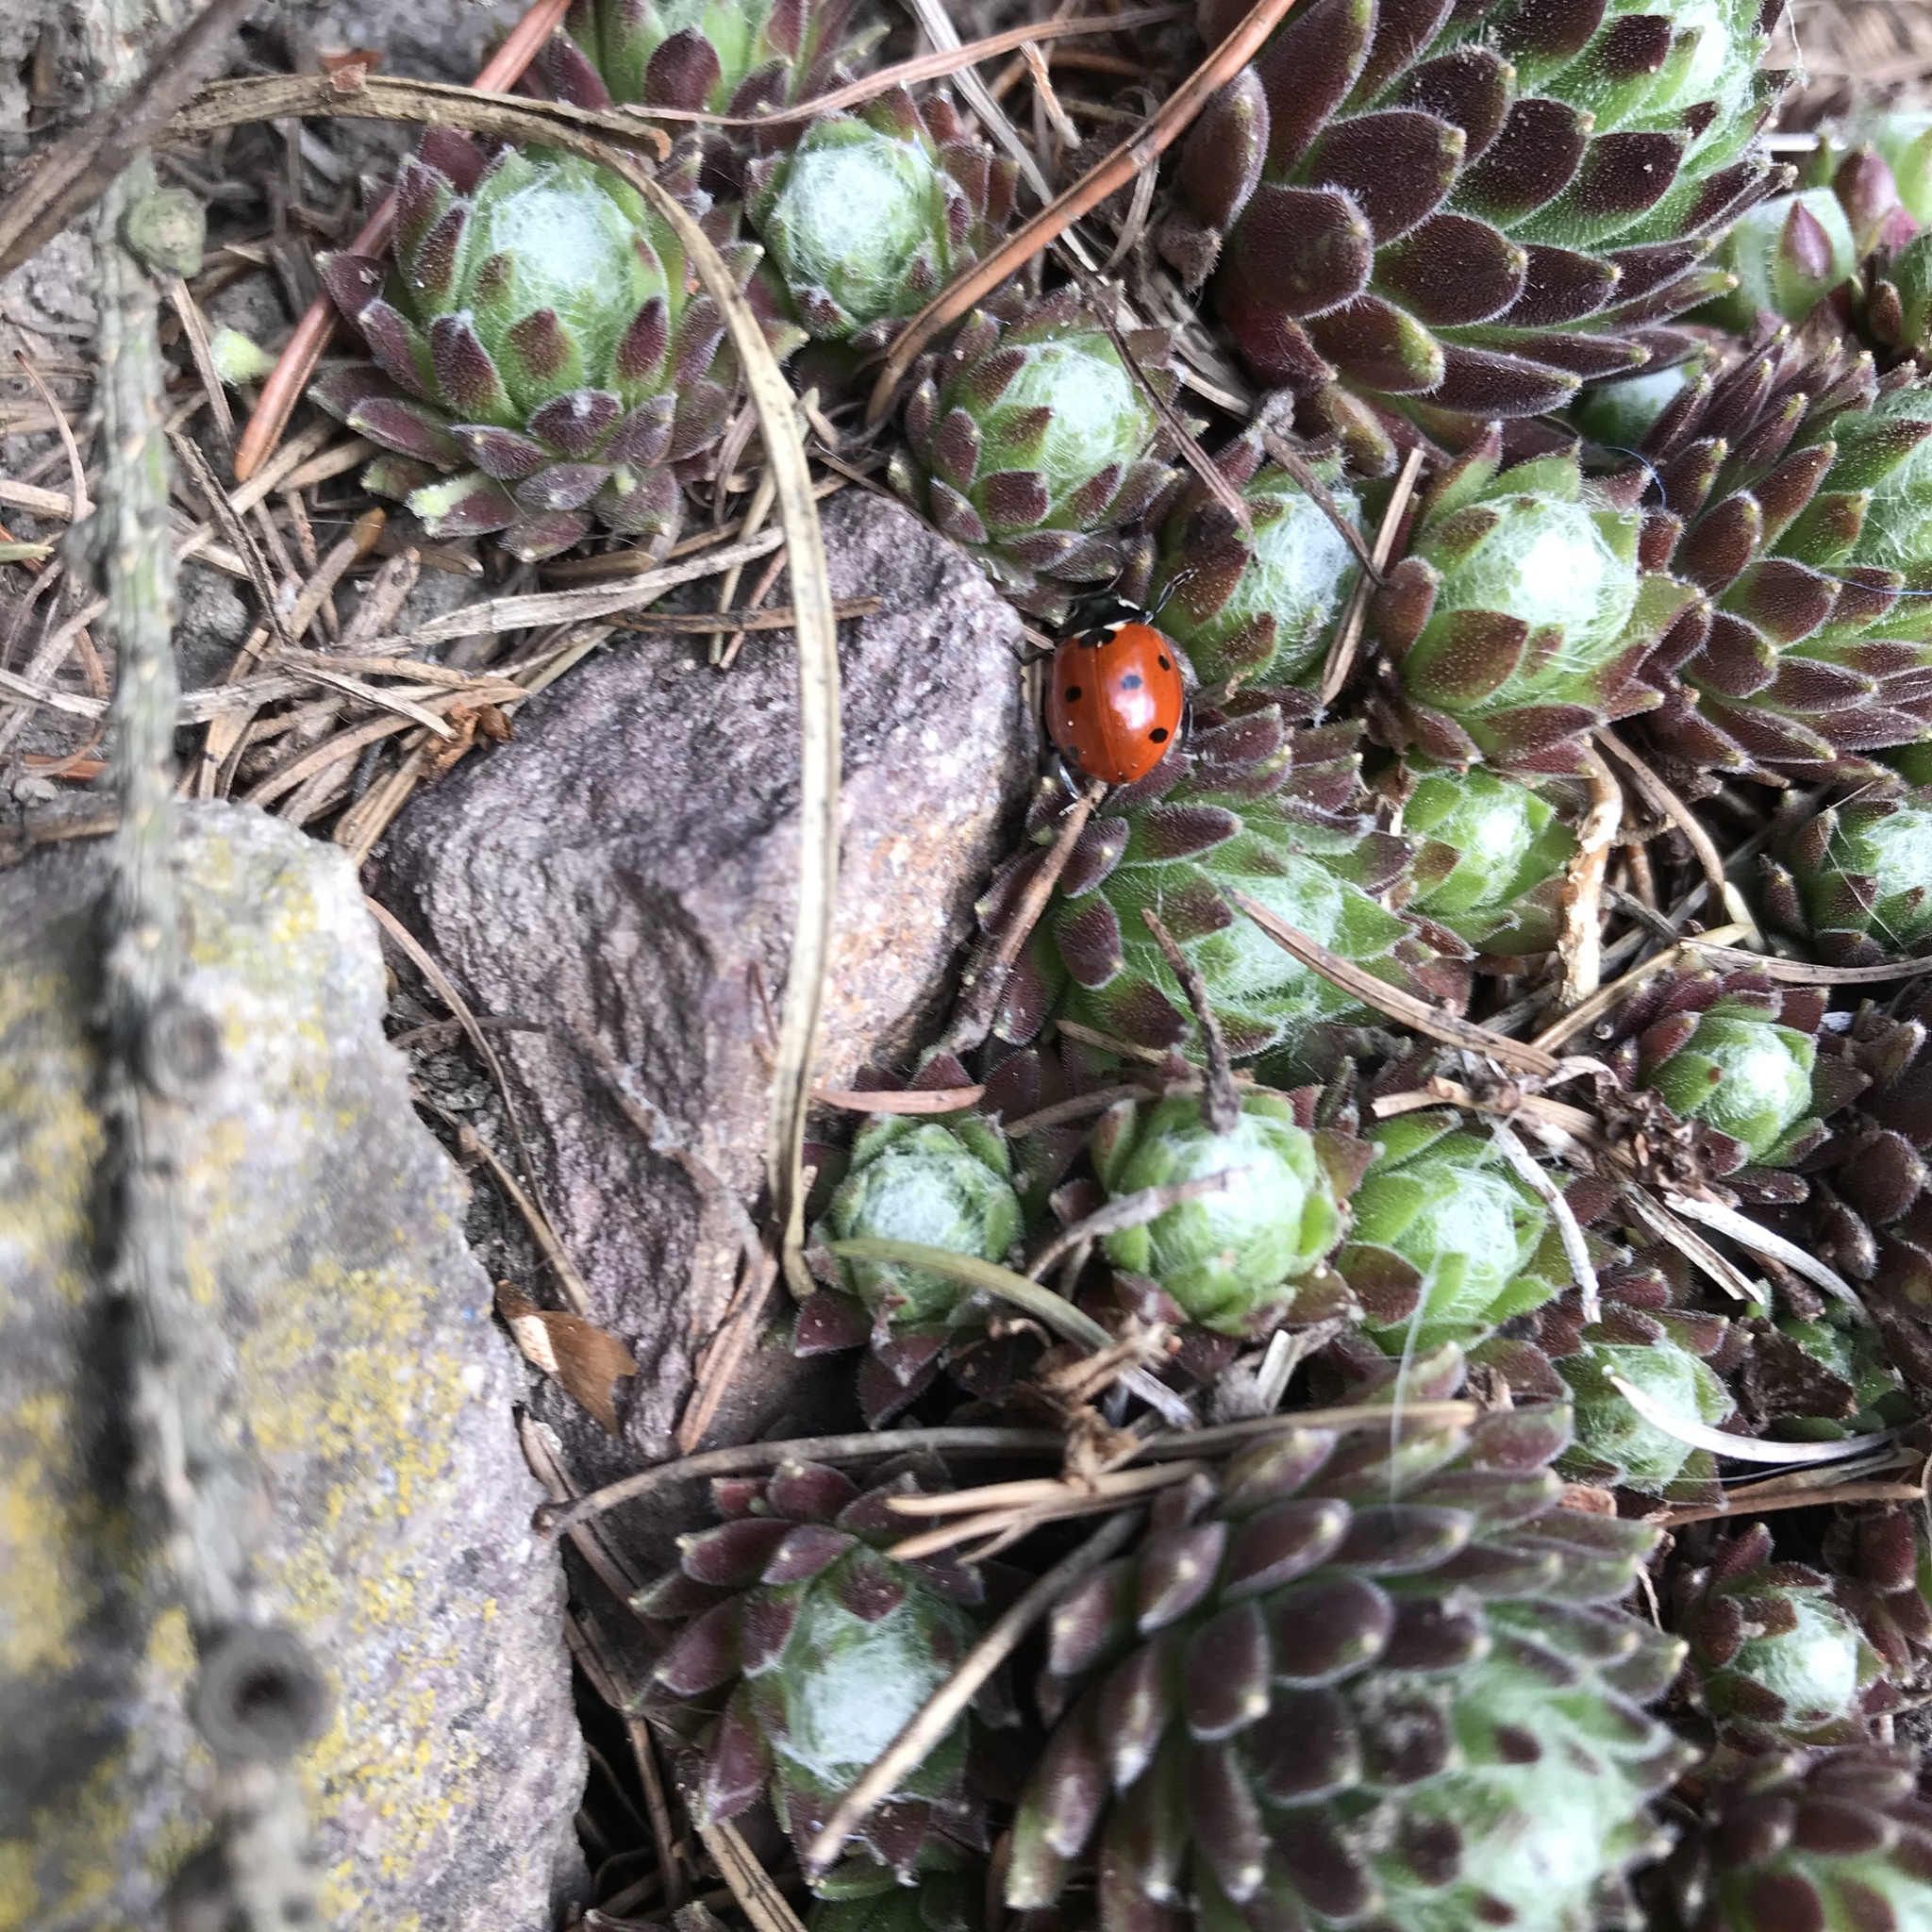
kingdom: Animalia
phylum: Arthropoda
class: Insecta
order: Coleoptera
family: Coccinellidae
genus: Coccinella
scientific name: Coccinella septempunctata
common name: Sevenspotted lady beetle
